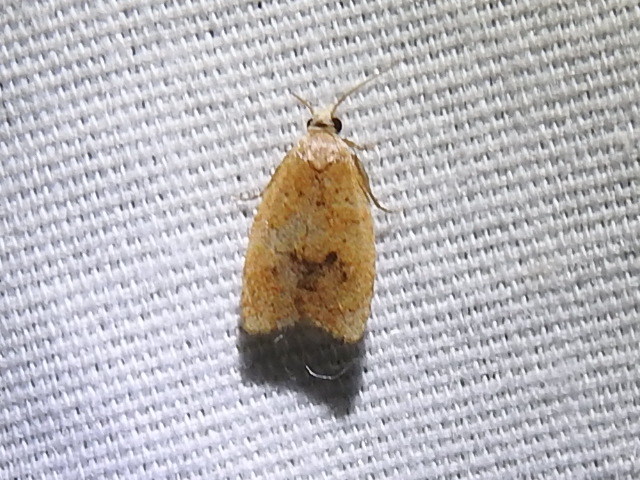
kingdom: Animalia
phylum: Arthropoda
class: Insecta
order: Lepidoptera
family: Tortricidae
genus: Sparganothoides
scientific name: Sparganothoides lentiginosana
